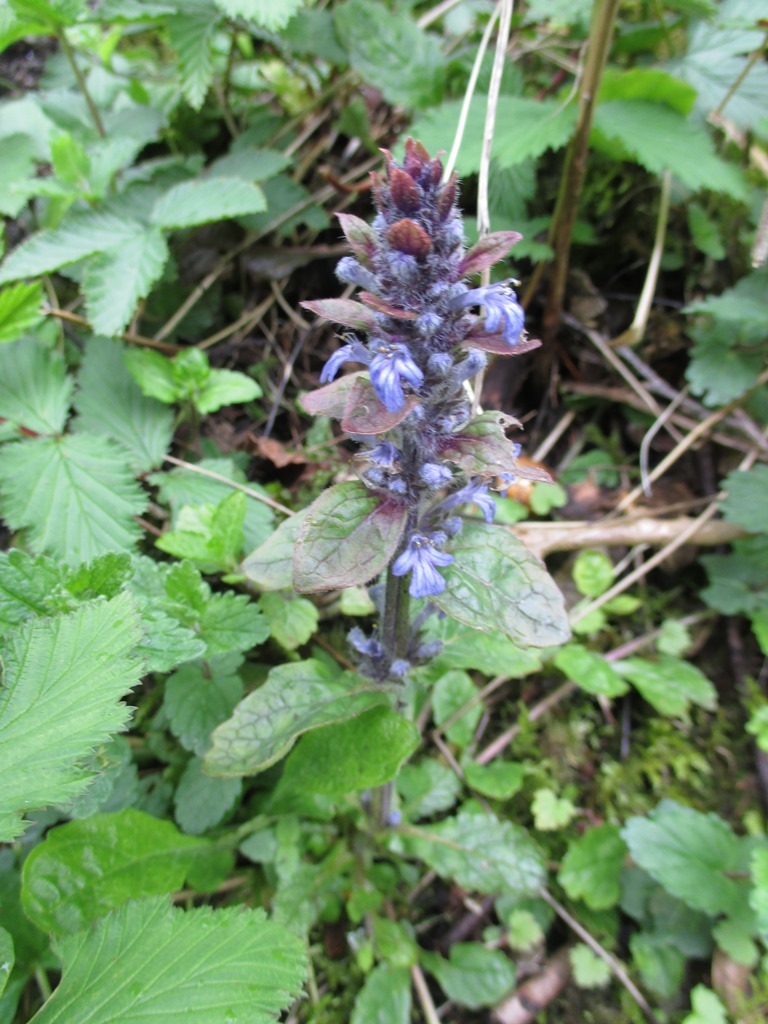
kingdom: Plantae
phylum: Tracheophyta
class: Magnoliopsida
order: Lamiales
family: Lamiaceae
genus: Ajuga
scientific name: Ajuga reptans
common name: Bugle
